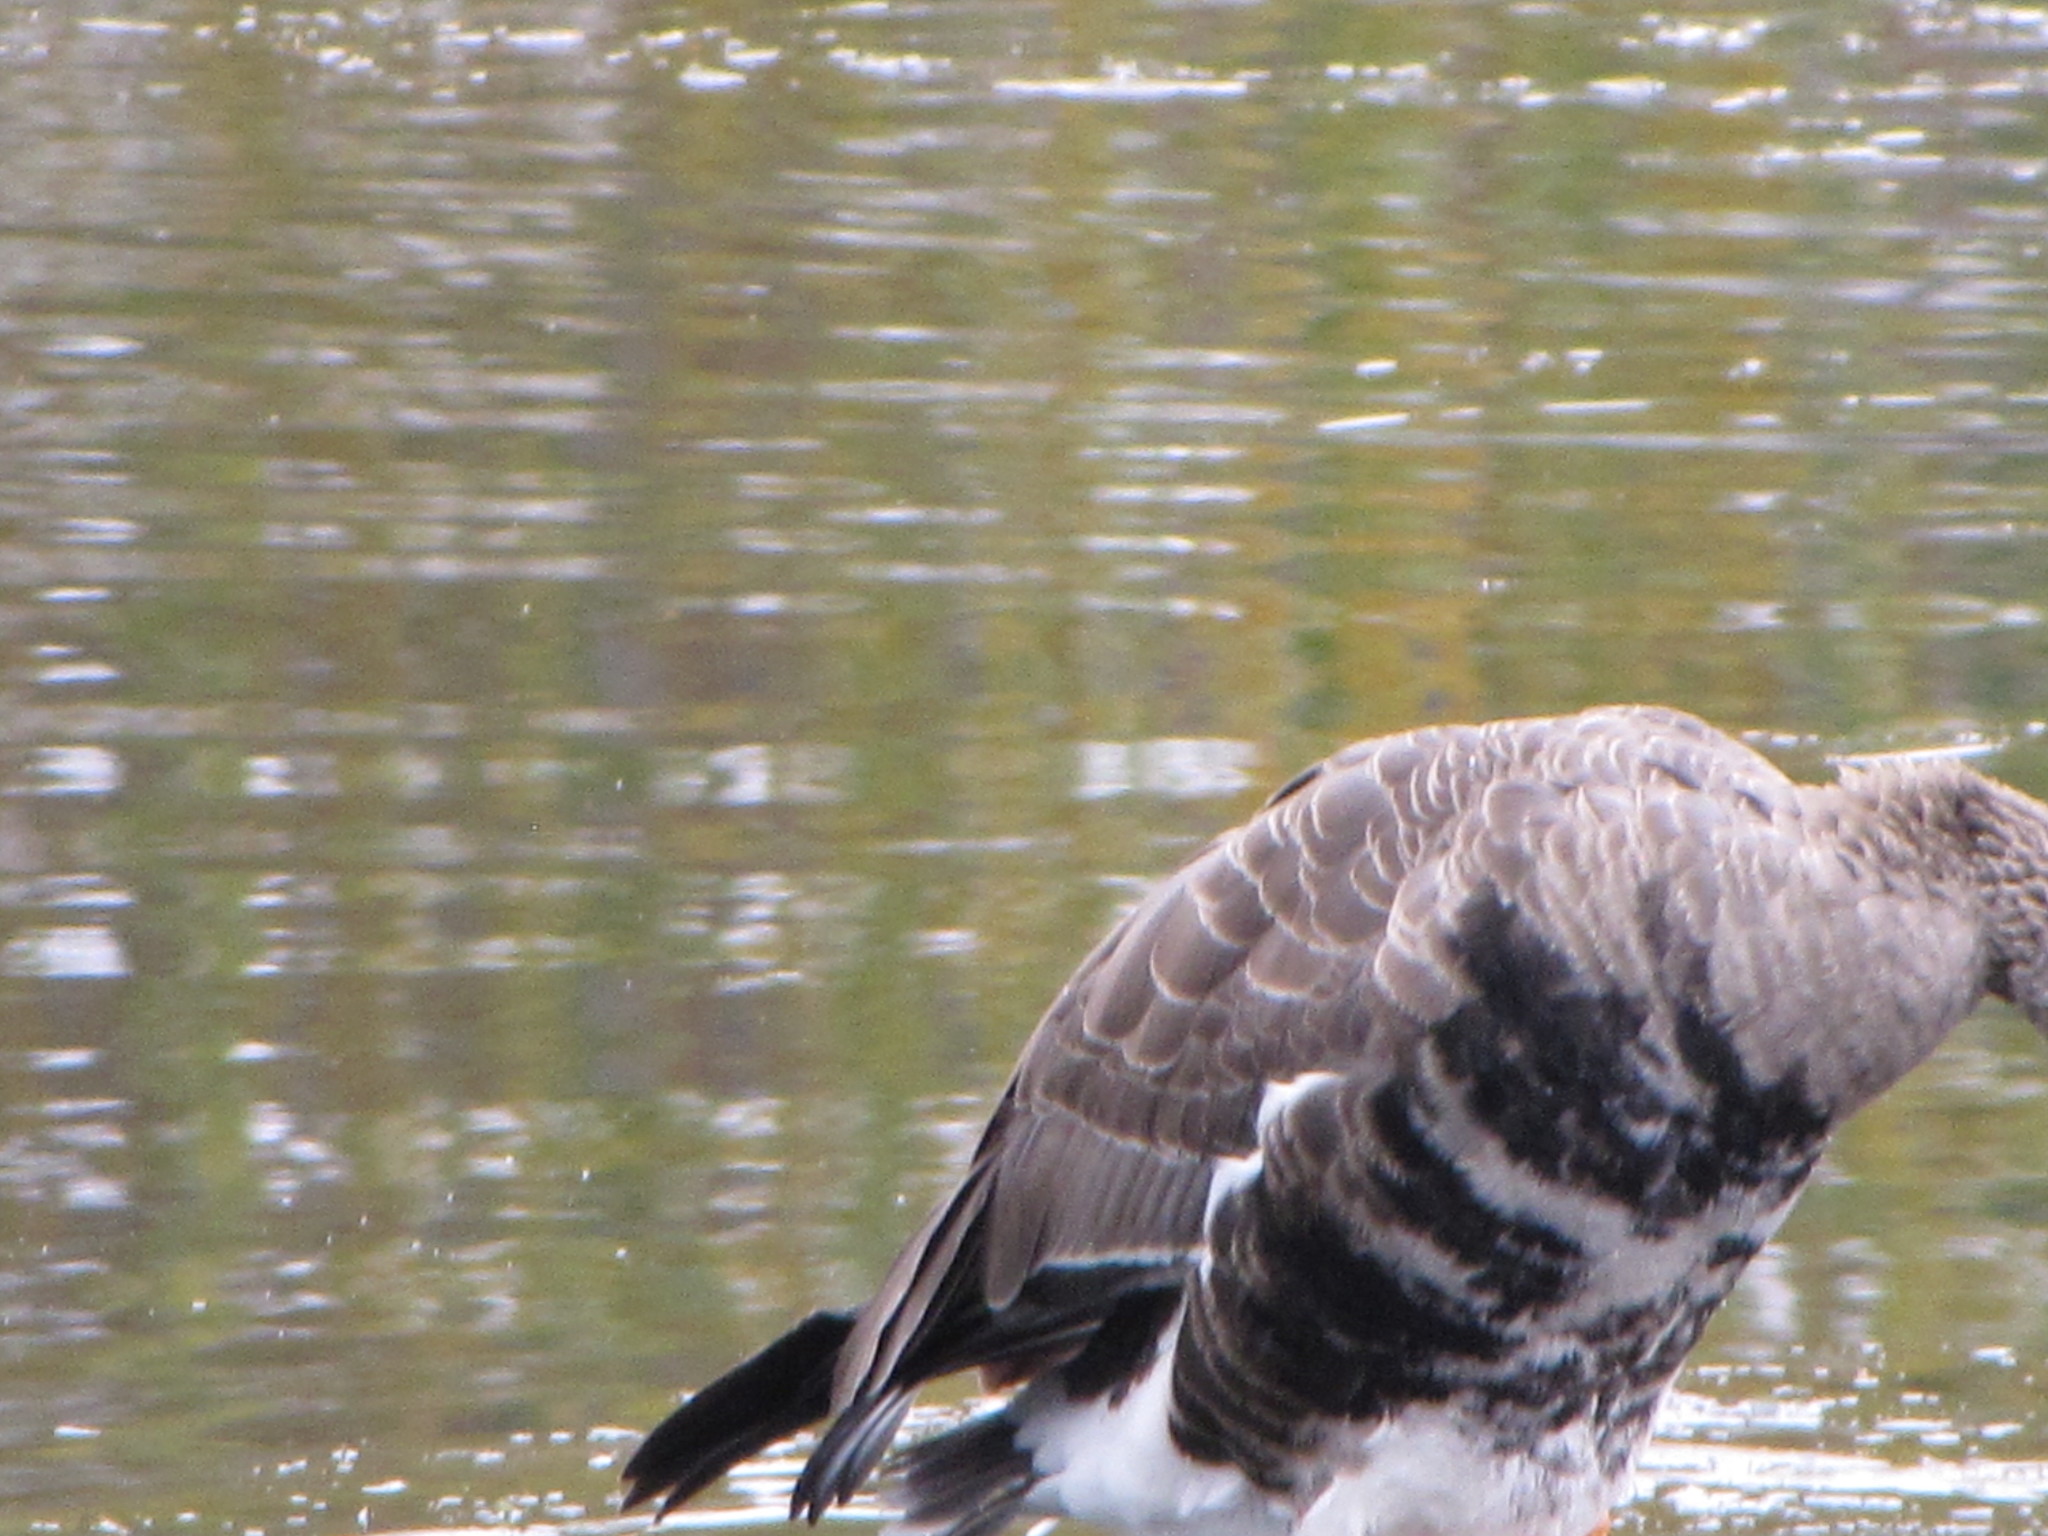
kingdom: Animalia
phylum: Chordata
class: Aves
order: Anseriformes
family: Anatidae
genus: Anser
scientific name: Anser albifrons
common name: Greater white-fronted goose
